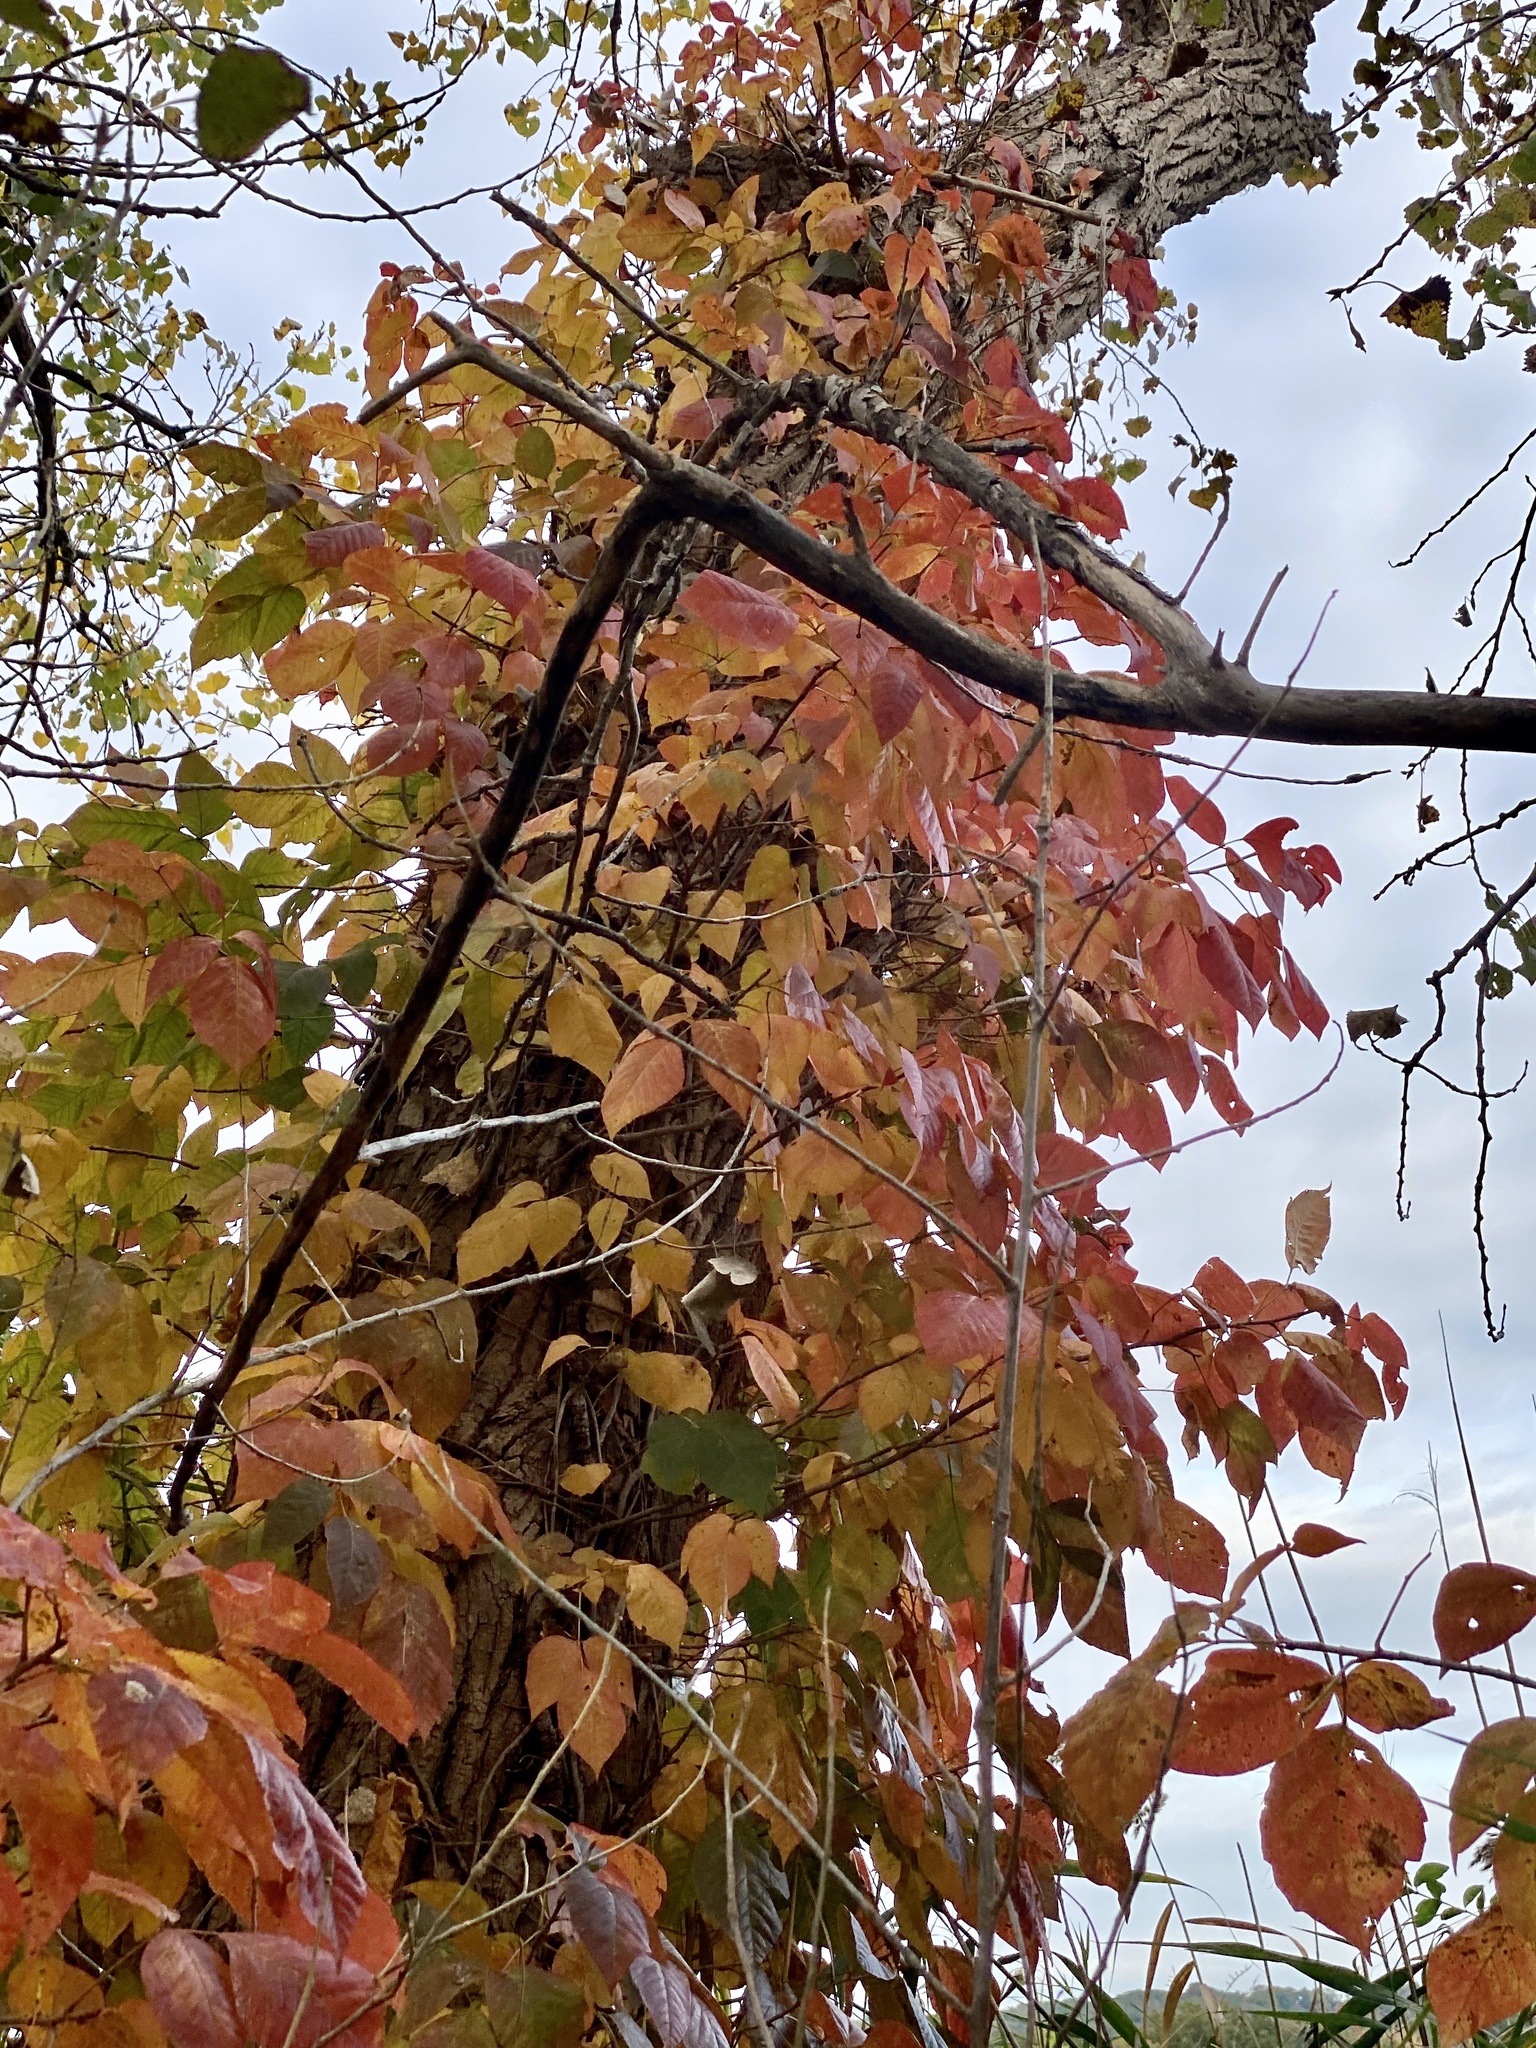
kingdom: Plantae
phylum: Tracheophyta
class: Magnoliopsida
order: Sapindales
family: Anacardiaceae
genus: Toxicodendron
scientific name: Toxicodendron radicans
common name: Poison ivy
